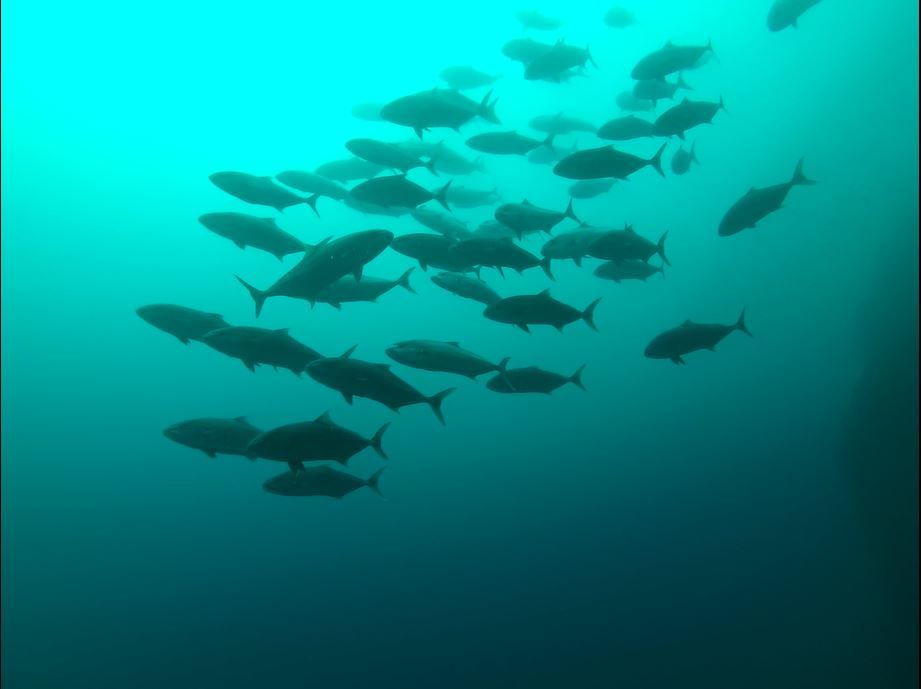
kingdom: Animalia
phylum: Chordata
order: Perciformes
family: Carangidae
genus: Seriola
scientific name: Seriola rivoliana
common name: Almaco jack
